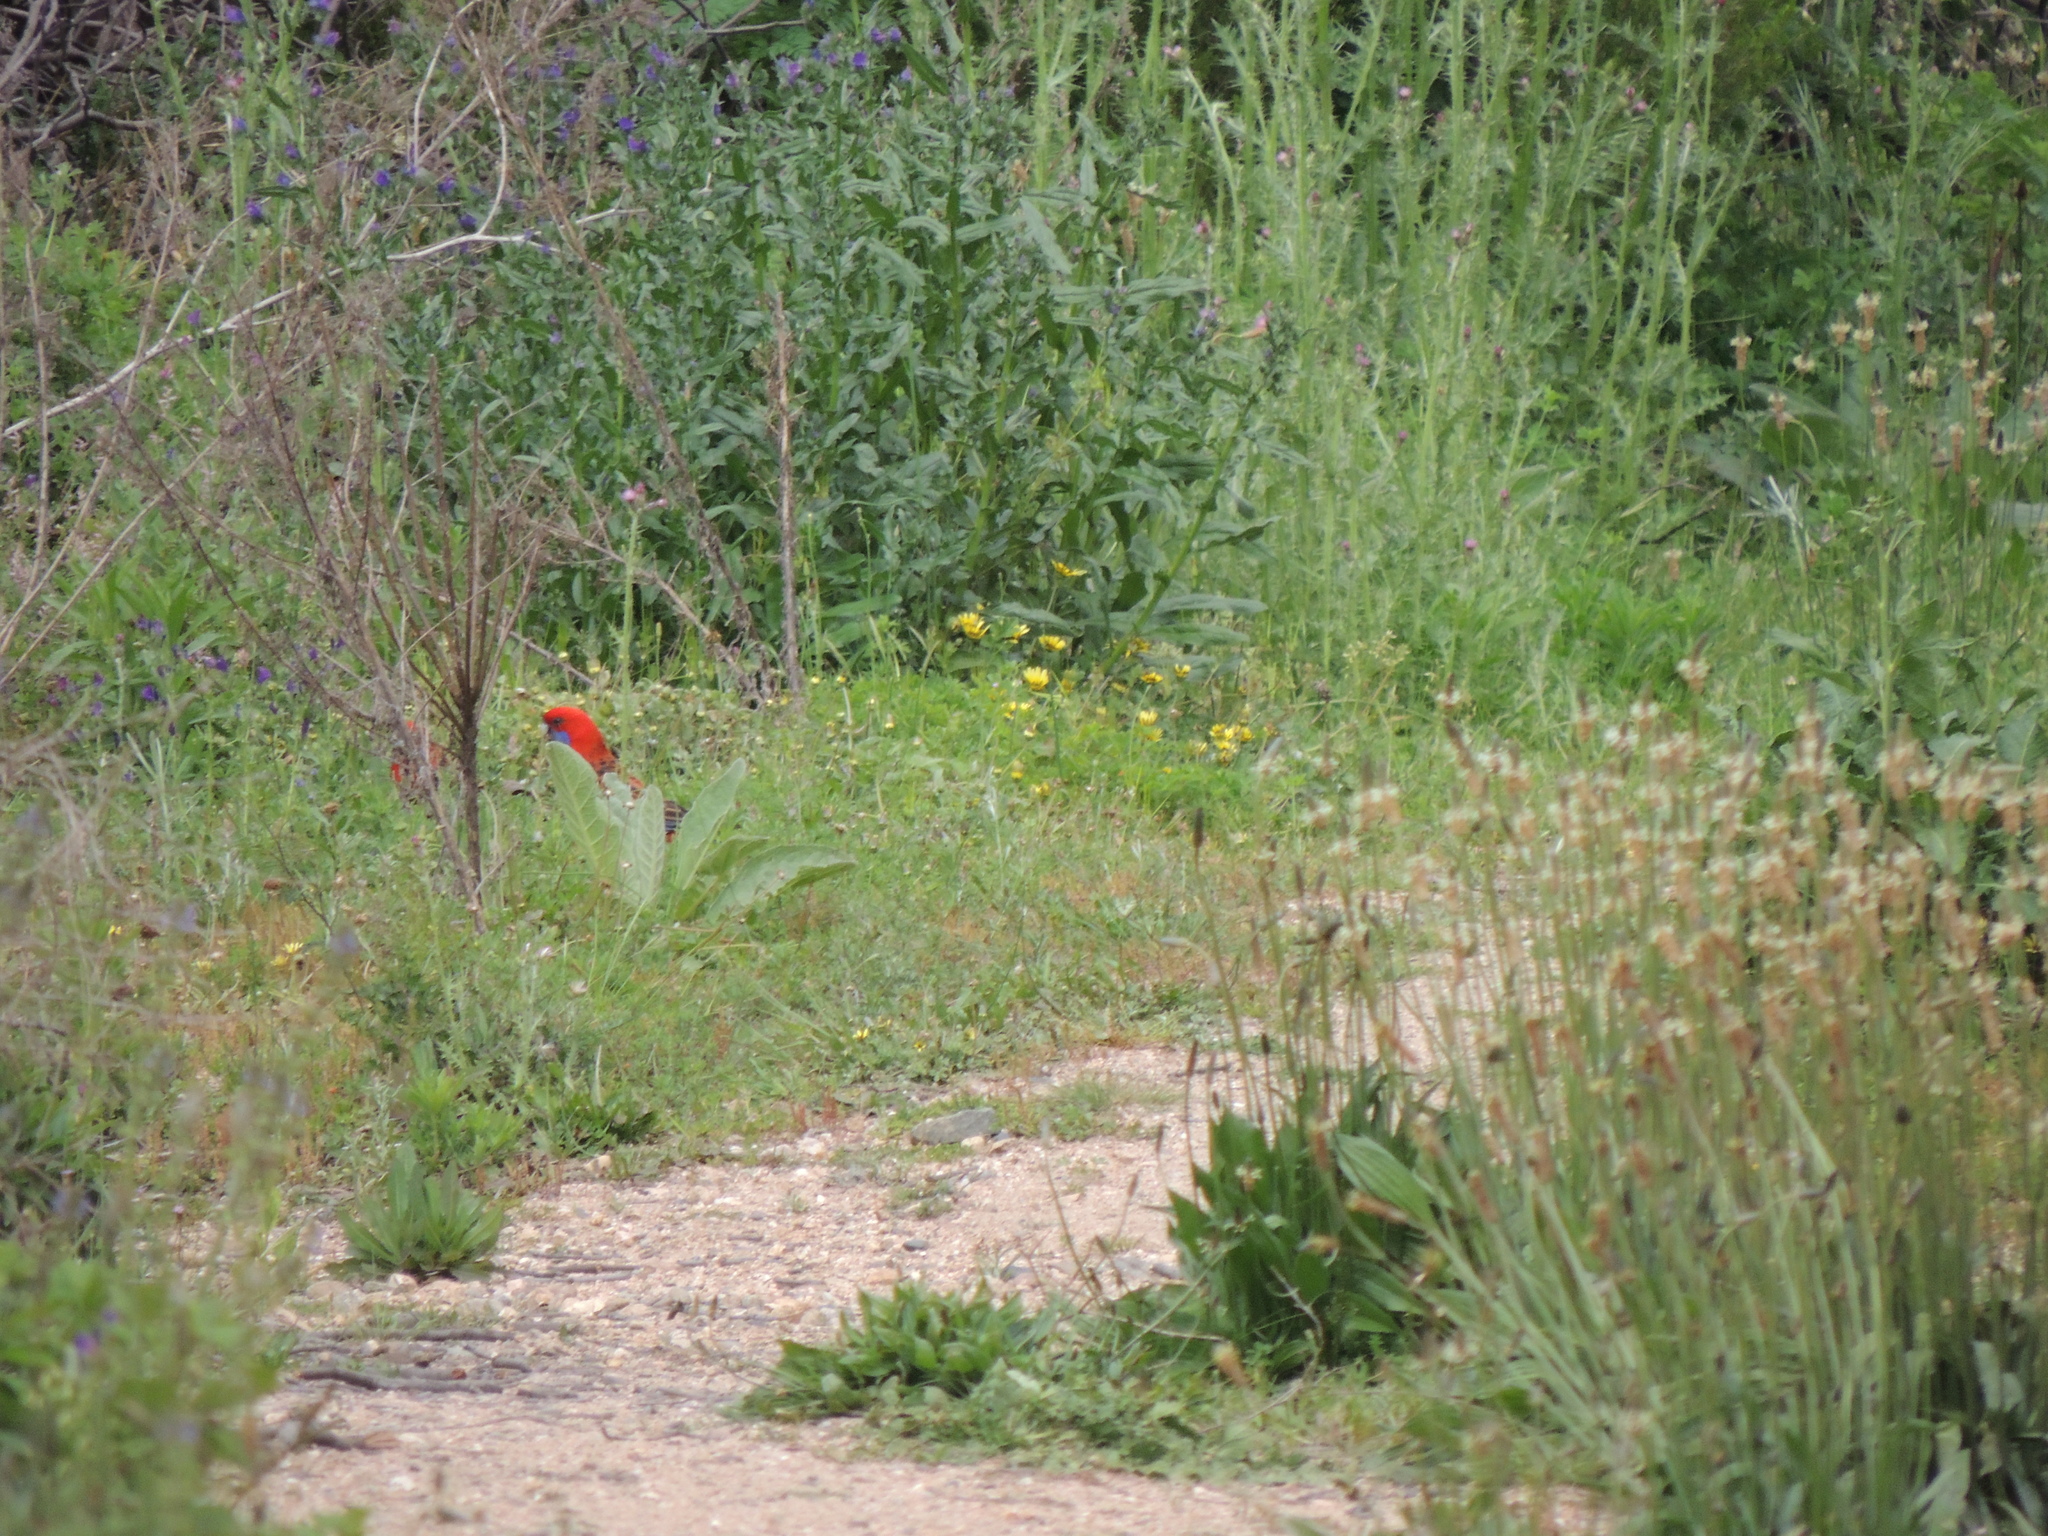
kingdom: Animalia
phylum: Chordata
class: Aves
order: Psittaciformes
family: Psittacidae
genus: Platycercus
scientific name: Platycercus elegans
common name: Crimson rosella
